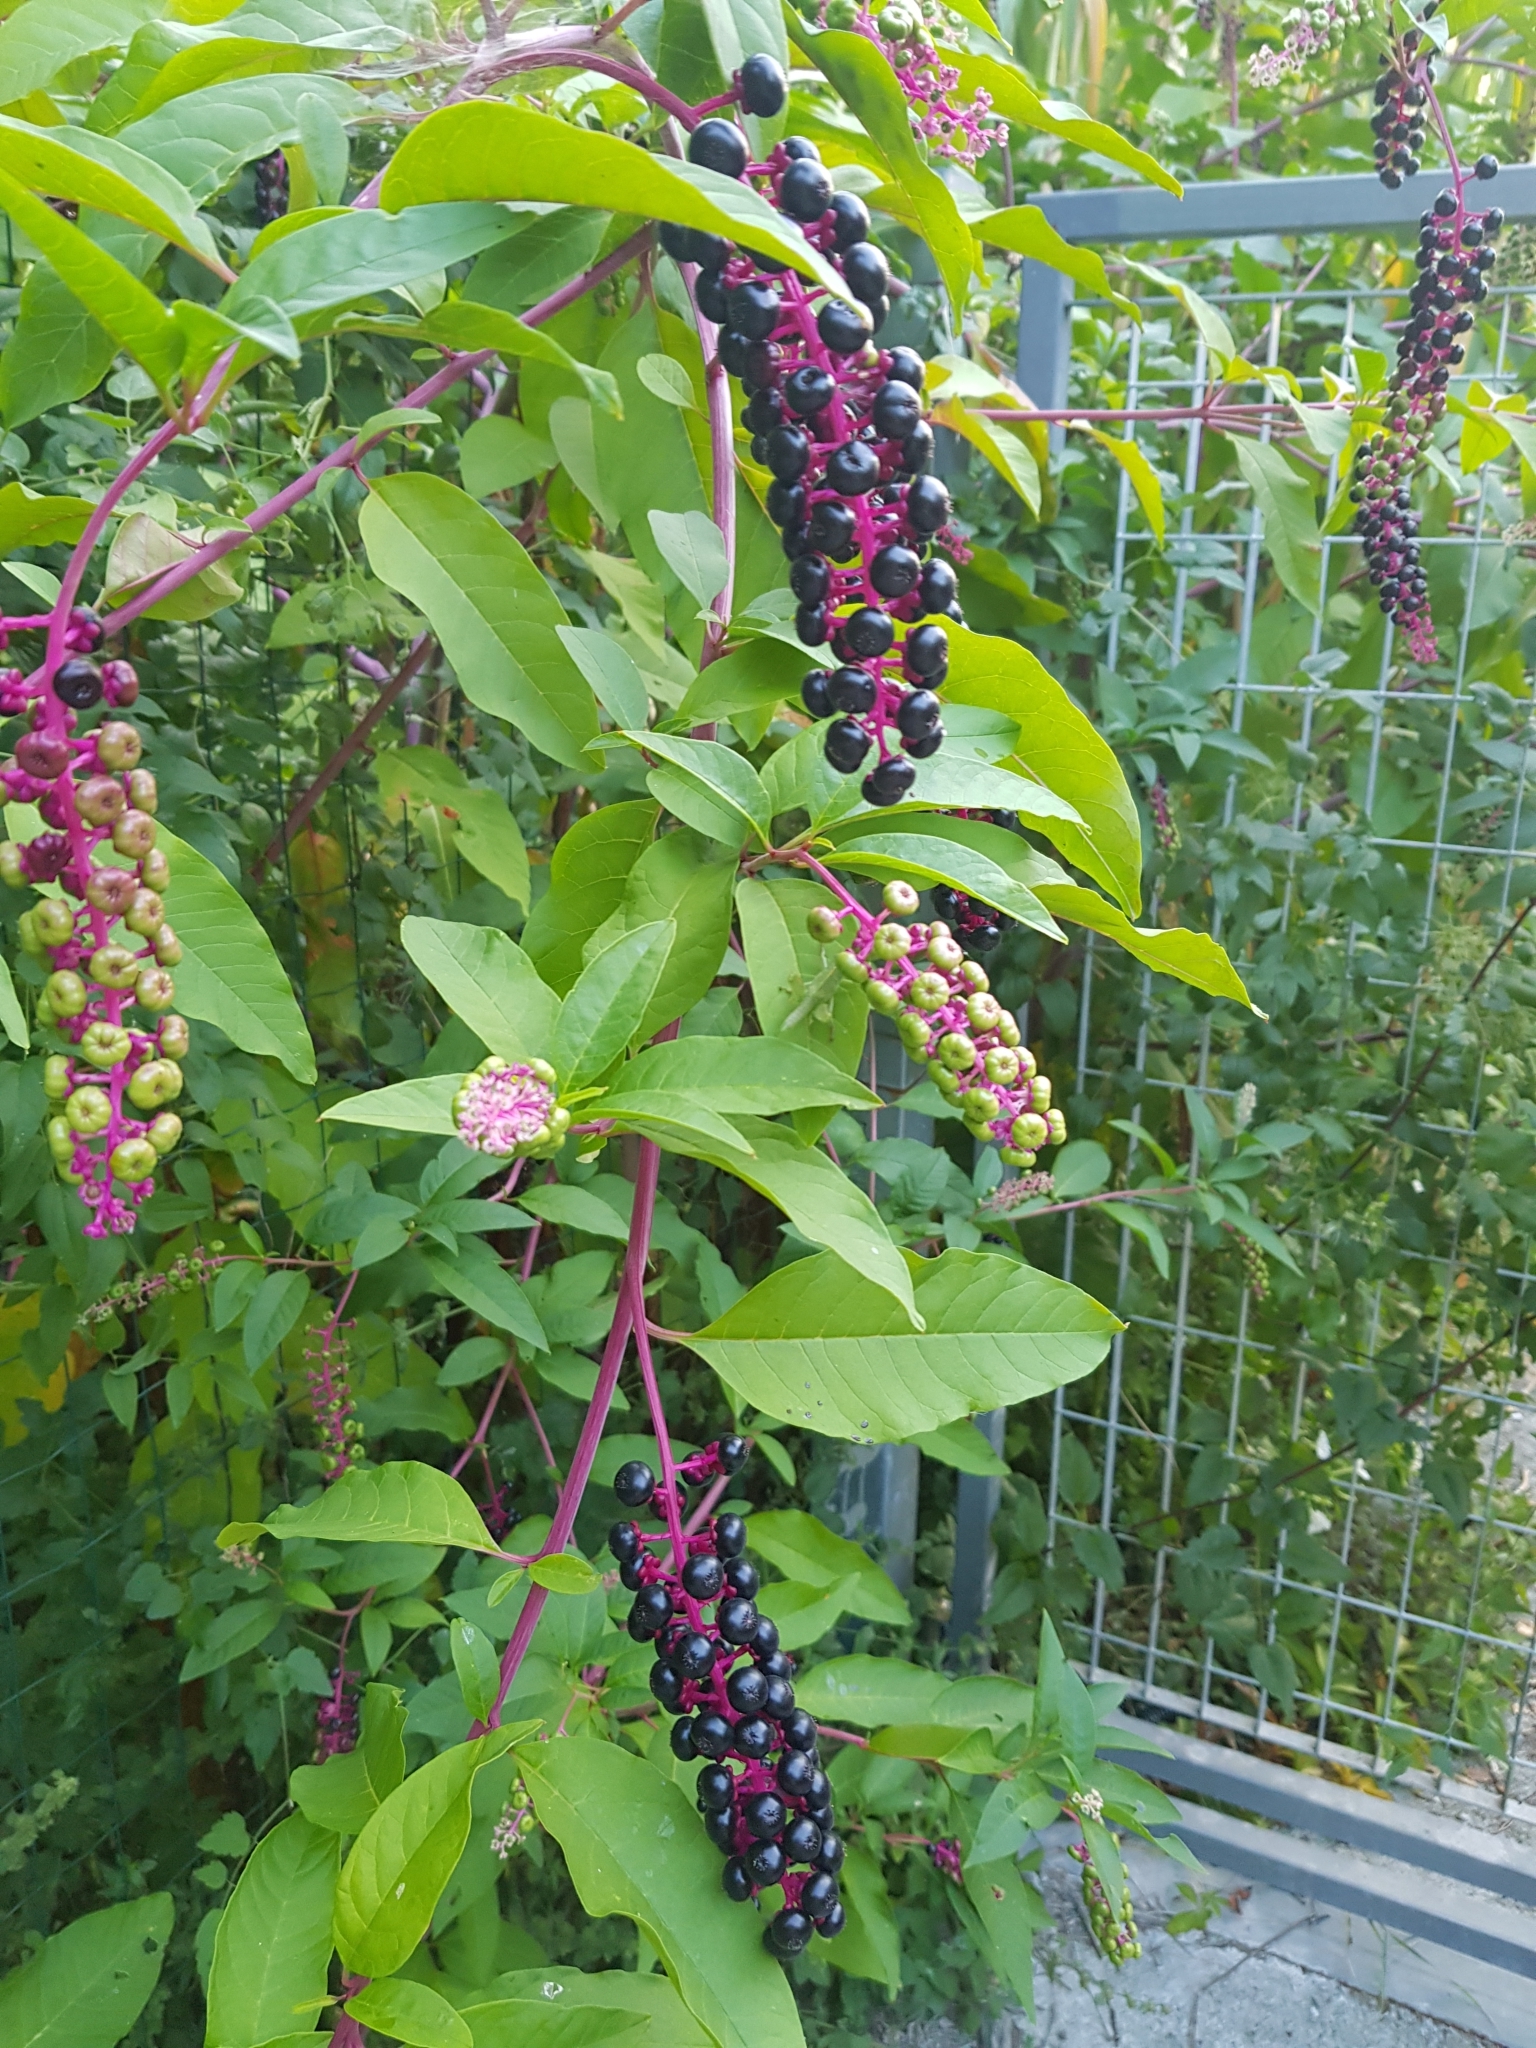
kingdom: Plantae
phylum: Tracheophyta
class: Magnoliopsida
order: Caryophyllales
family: Phytolaccaceae
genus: Phytolacca
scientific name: Phytolacca americana
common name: American pokeweed
